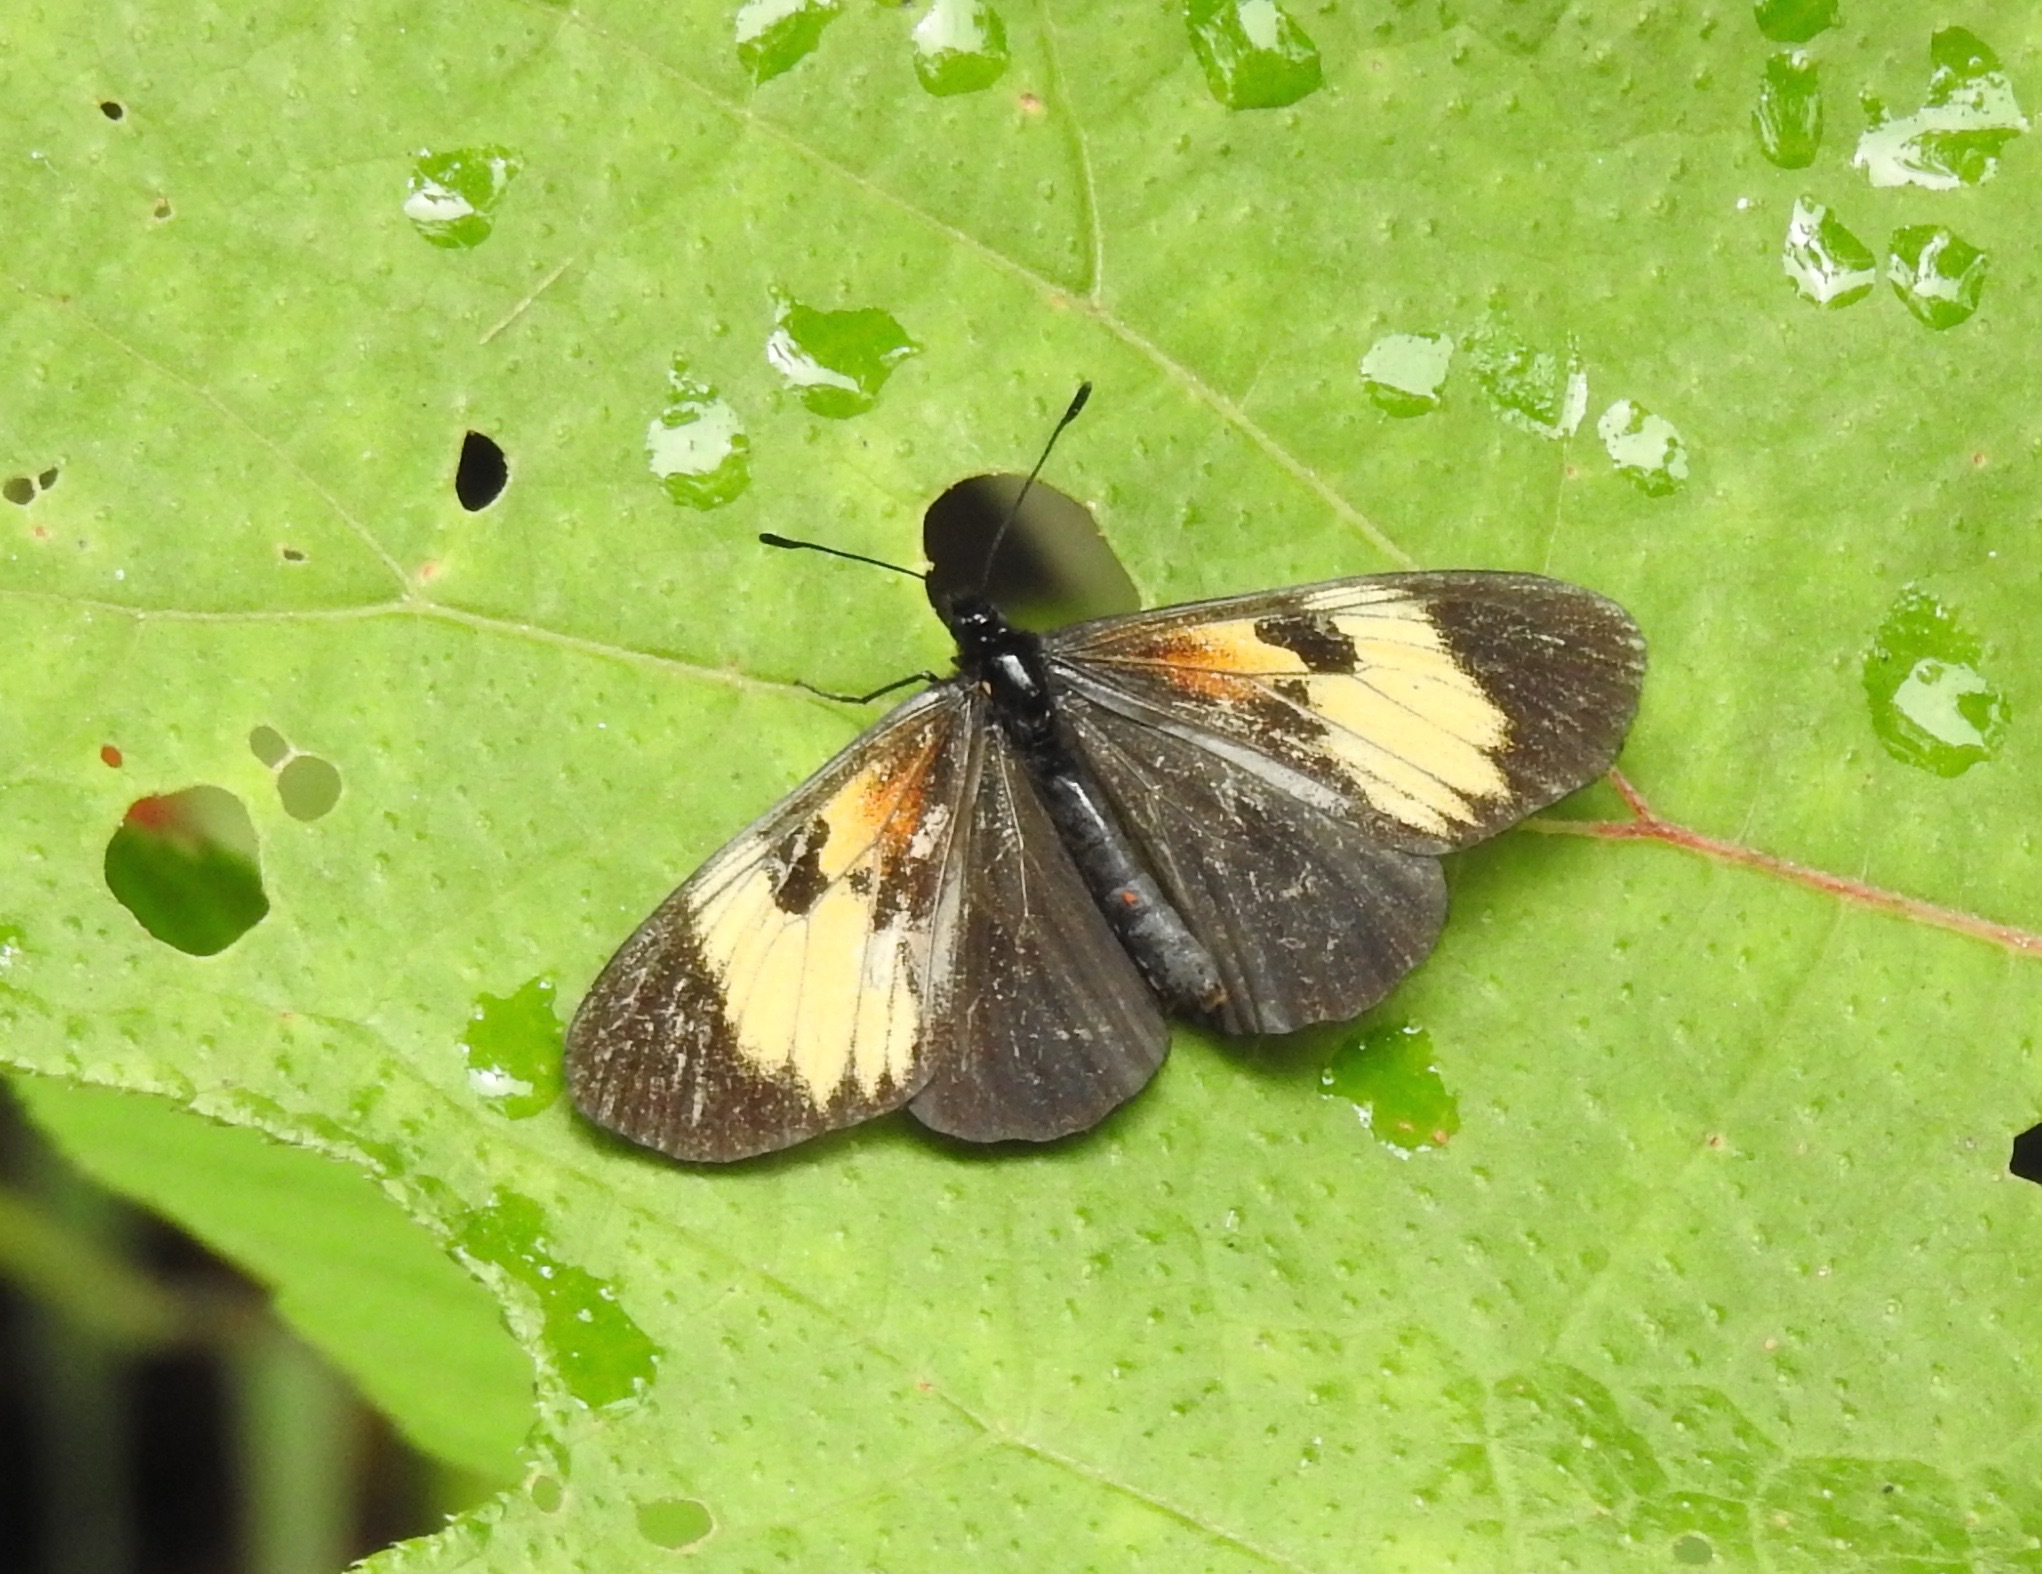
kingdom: Animalia
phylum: Arthropoda
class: Insecta
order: Lepidoptera
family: Nymphalidae
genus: Actinote
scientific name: Actinote stratonice
